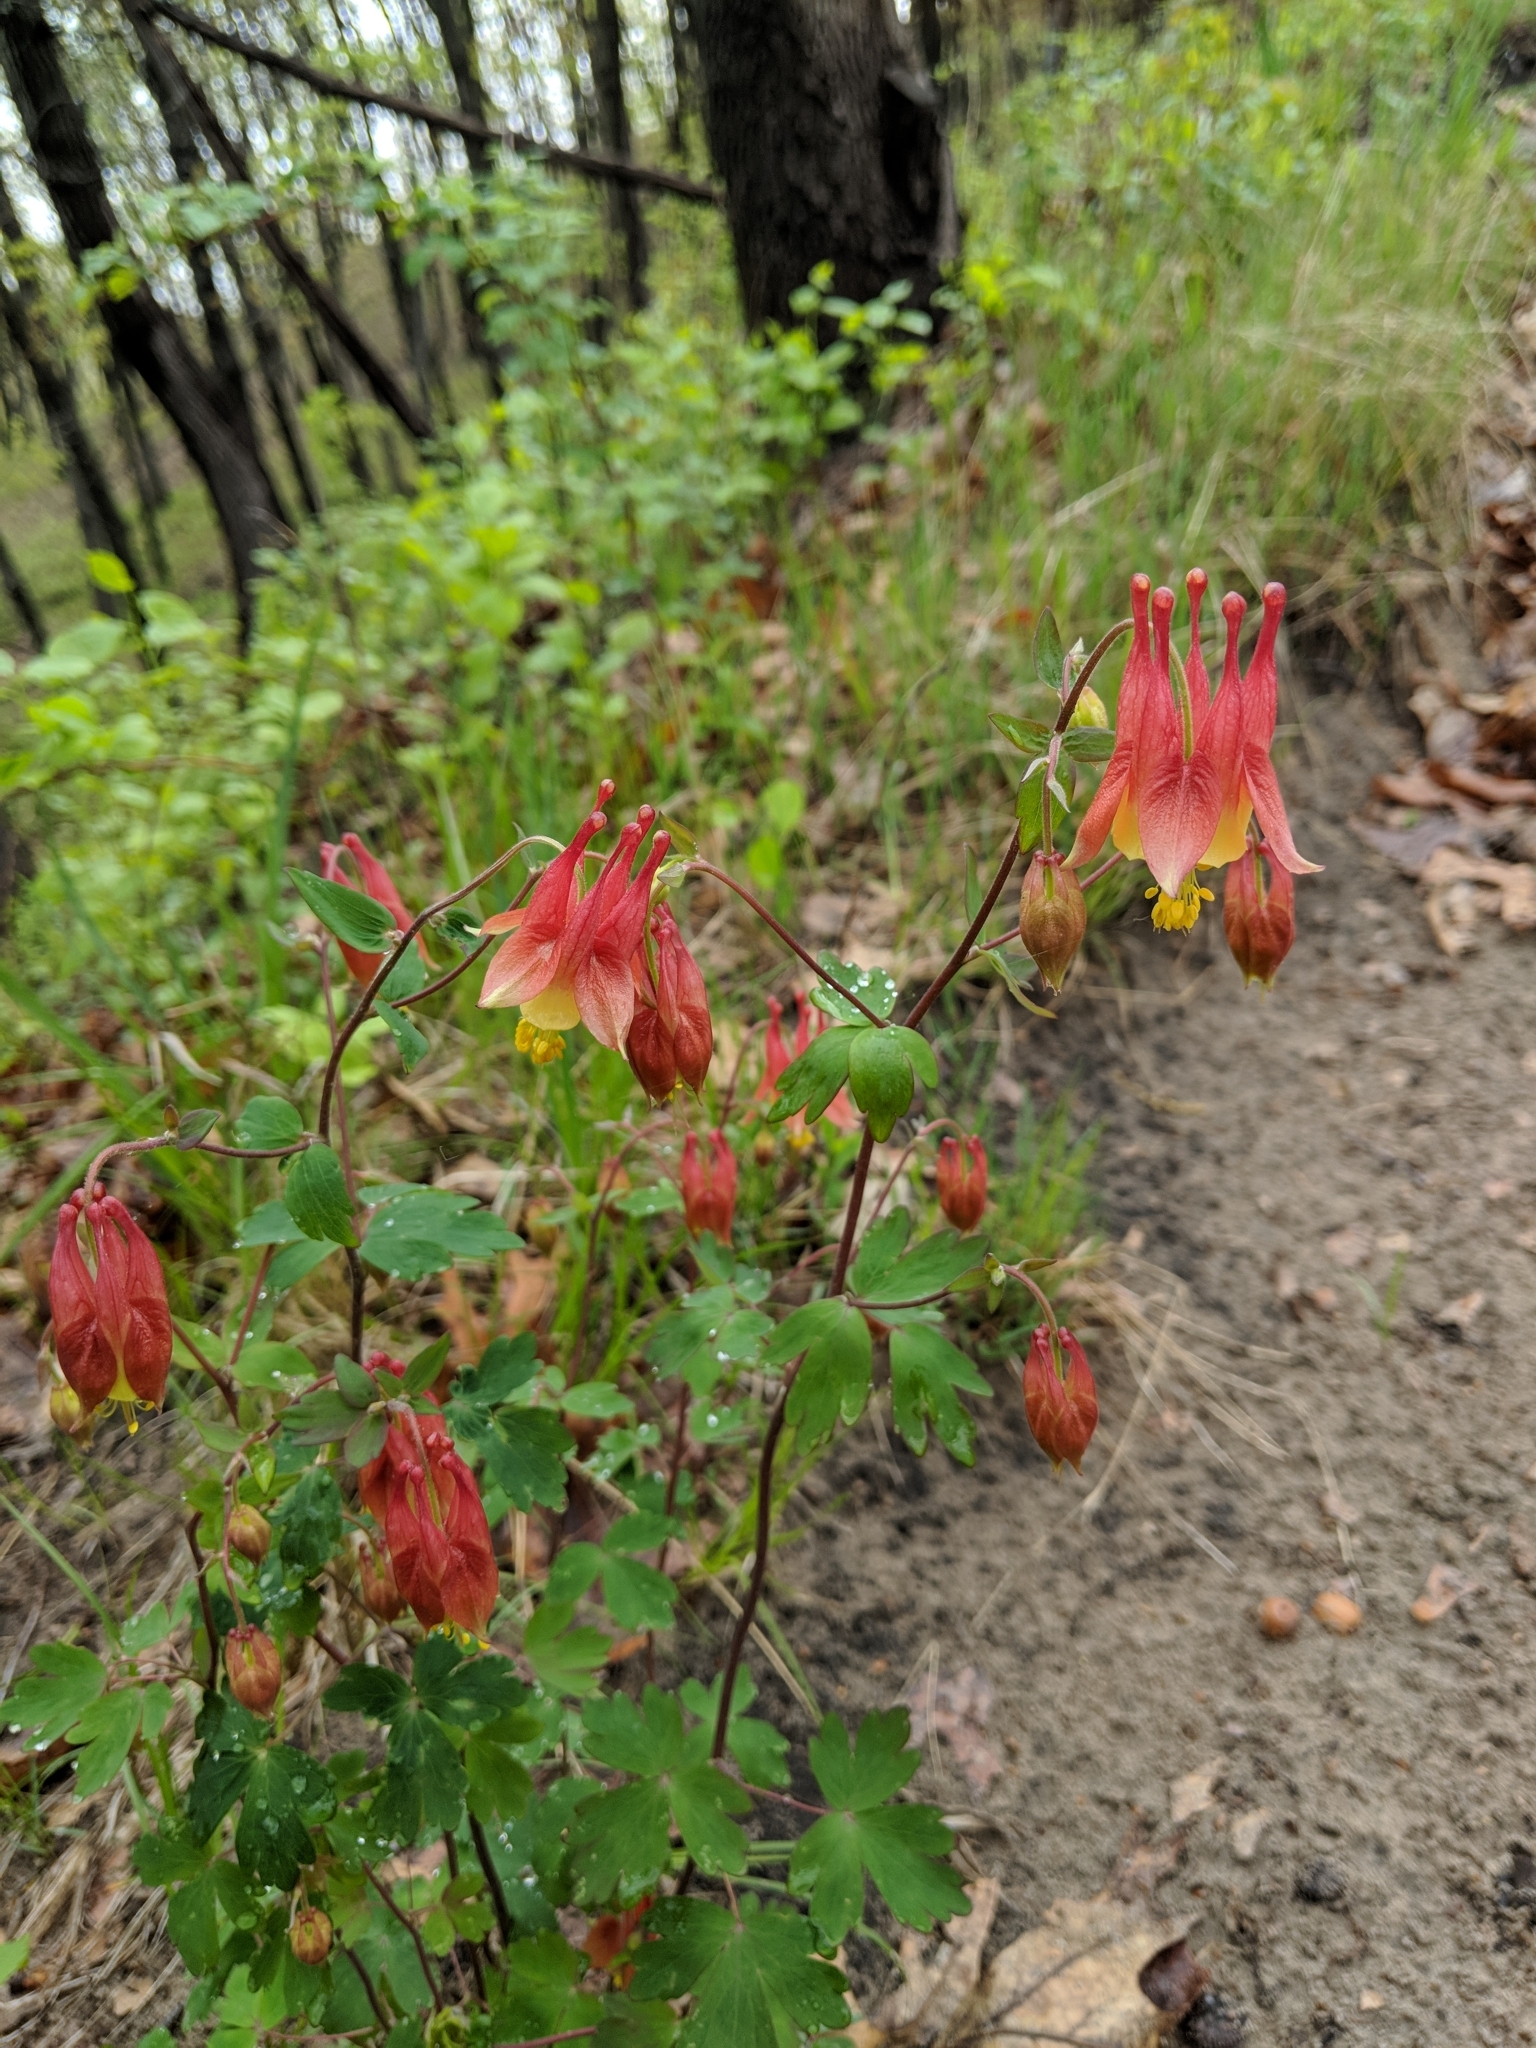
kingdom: Plantae
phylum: Tracheophyta
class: Magnoliopsida
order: Ranunculales
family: Ranunculaceae
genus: Aquilegia
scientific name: Aquilegia canadensis
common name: American columbine
